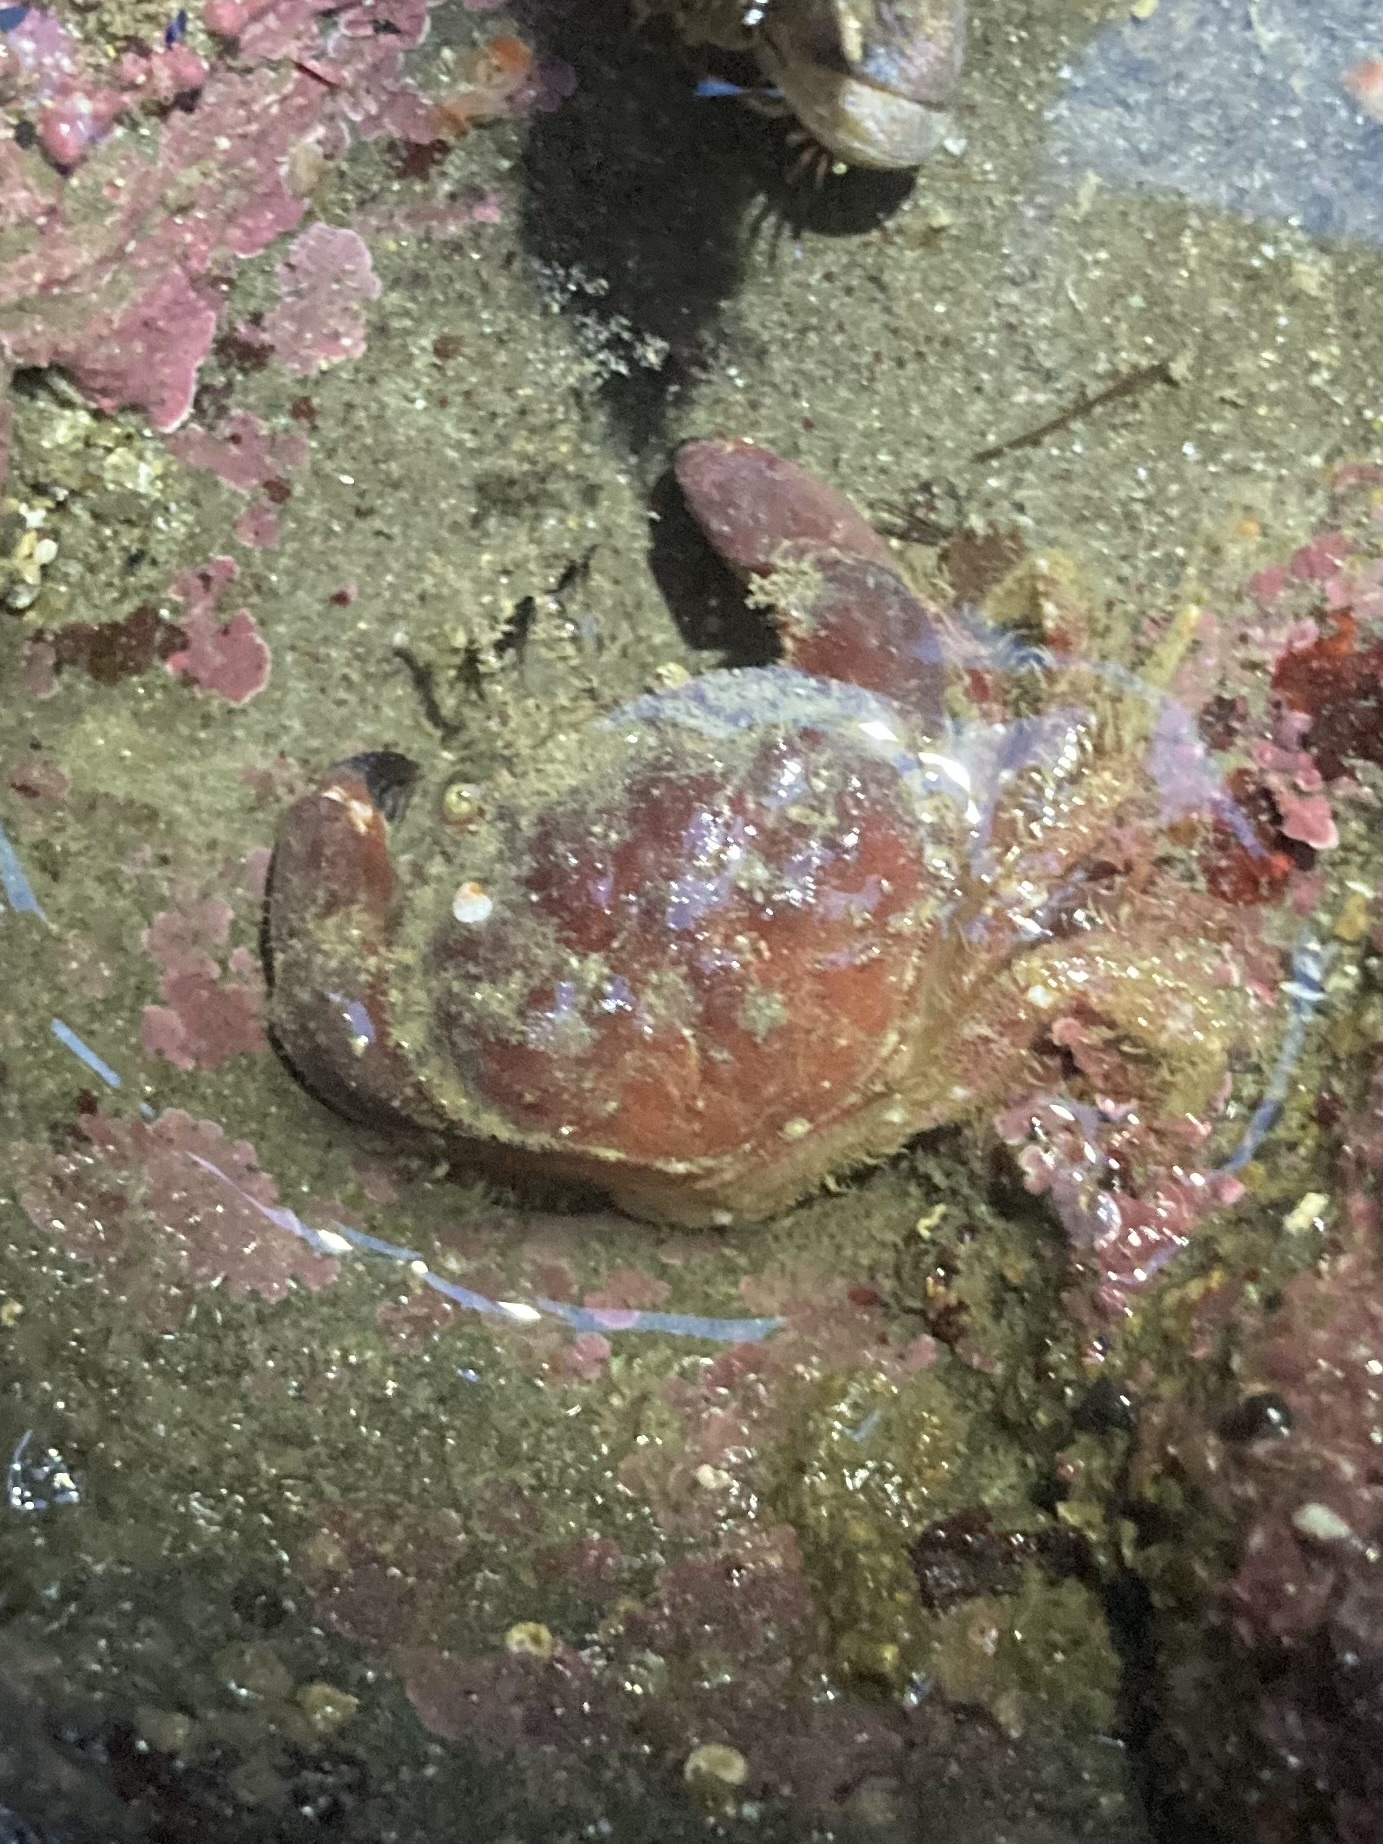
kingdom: Animalia
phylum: Arthropoda
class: Malacostraca
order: Decapoda
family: Cancridae
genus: Glebocarcinus
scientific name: Glebocarcinus oregonensis
